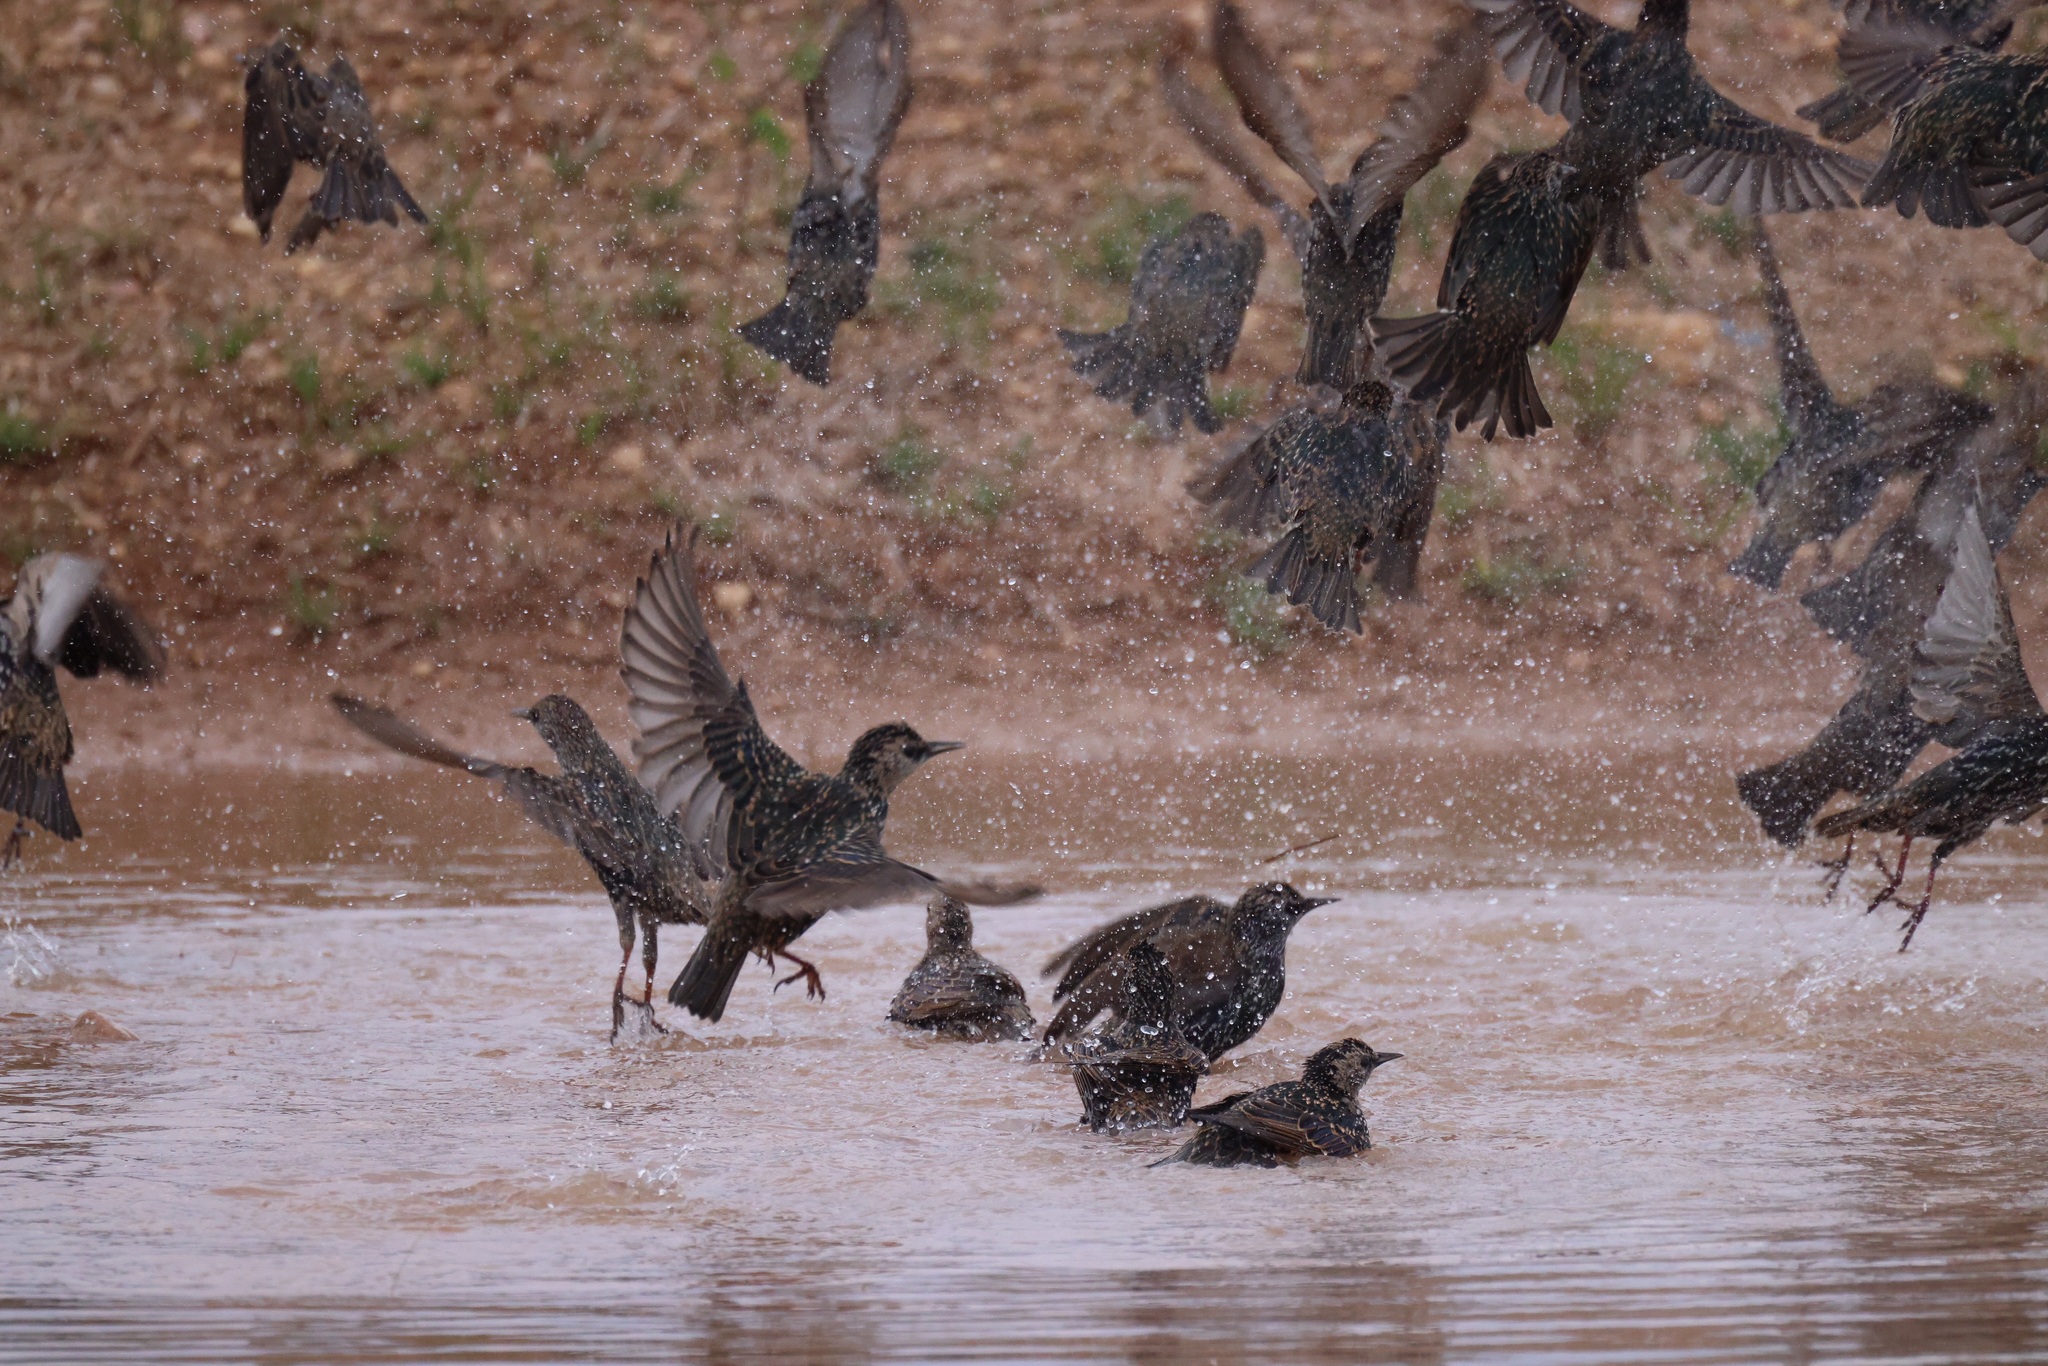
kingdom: Animalia
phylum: Chordata
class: Aves
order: Passeriformes
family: Sturnidae
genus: Sturnus
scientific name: Sturnus vulgaris
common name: Common starling
